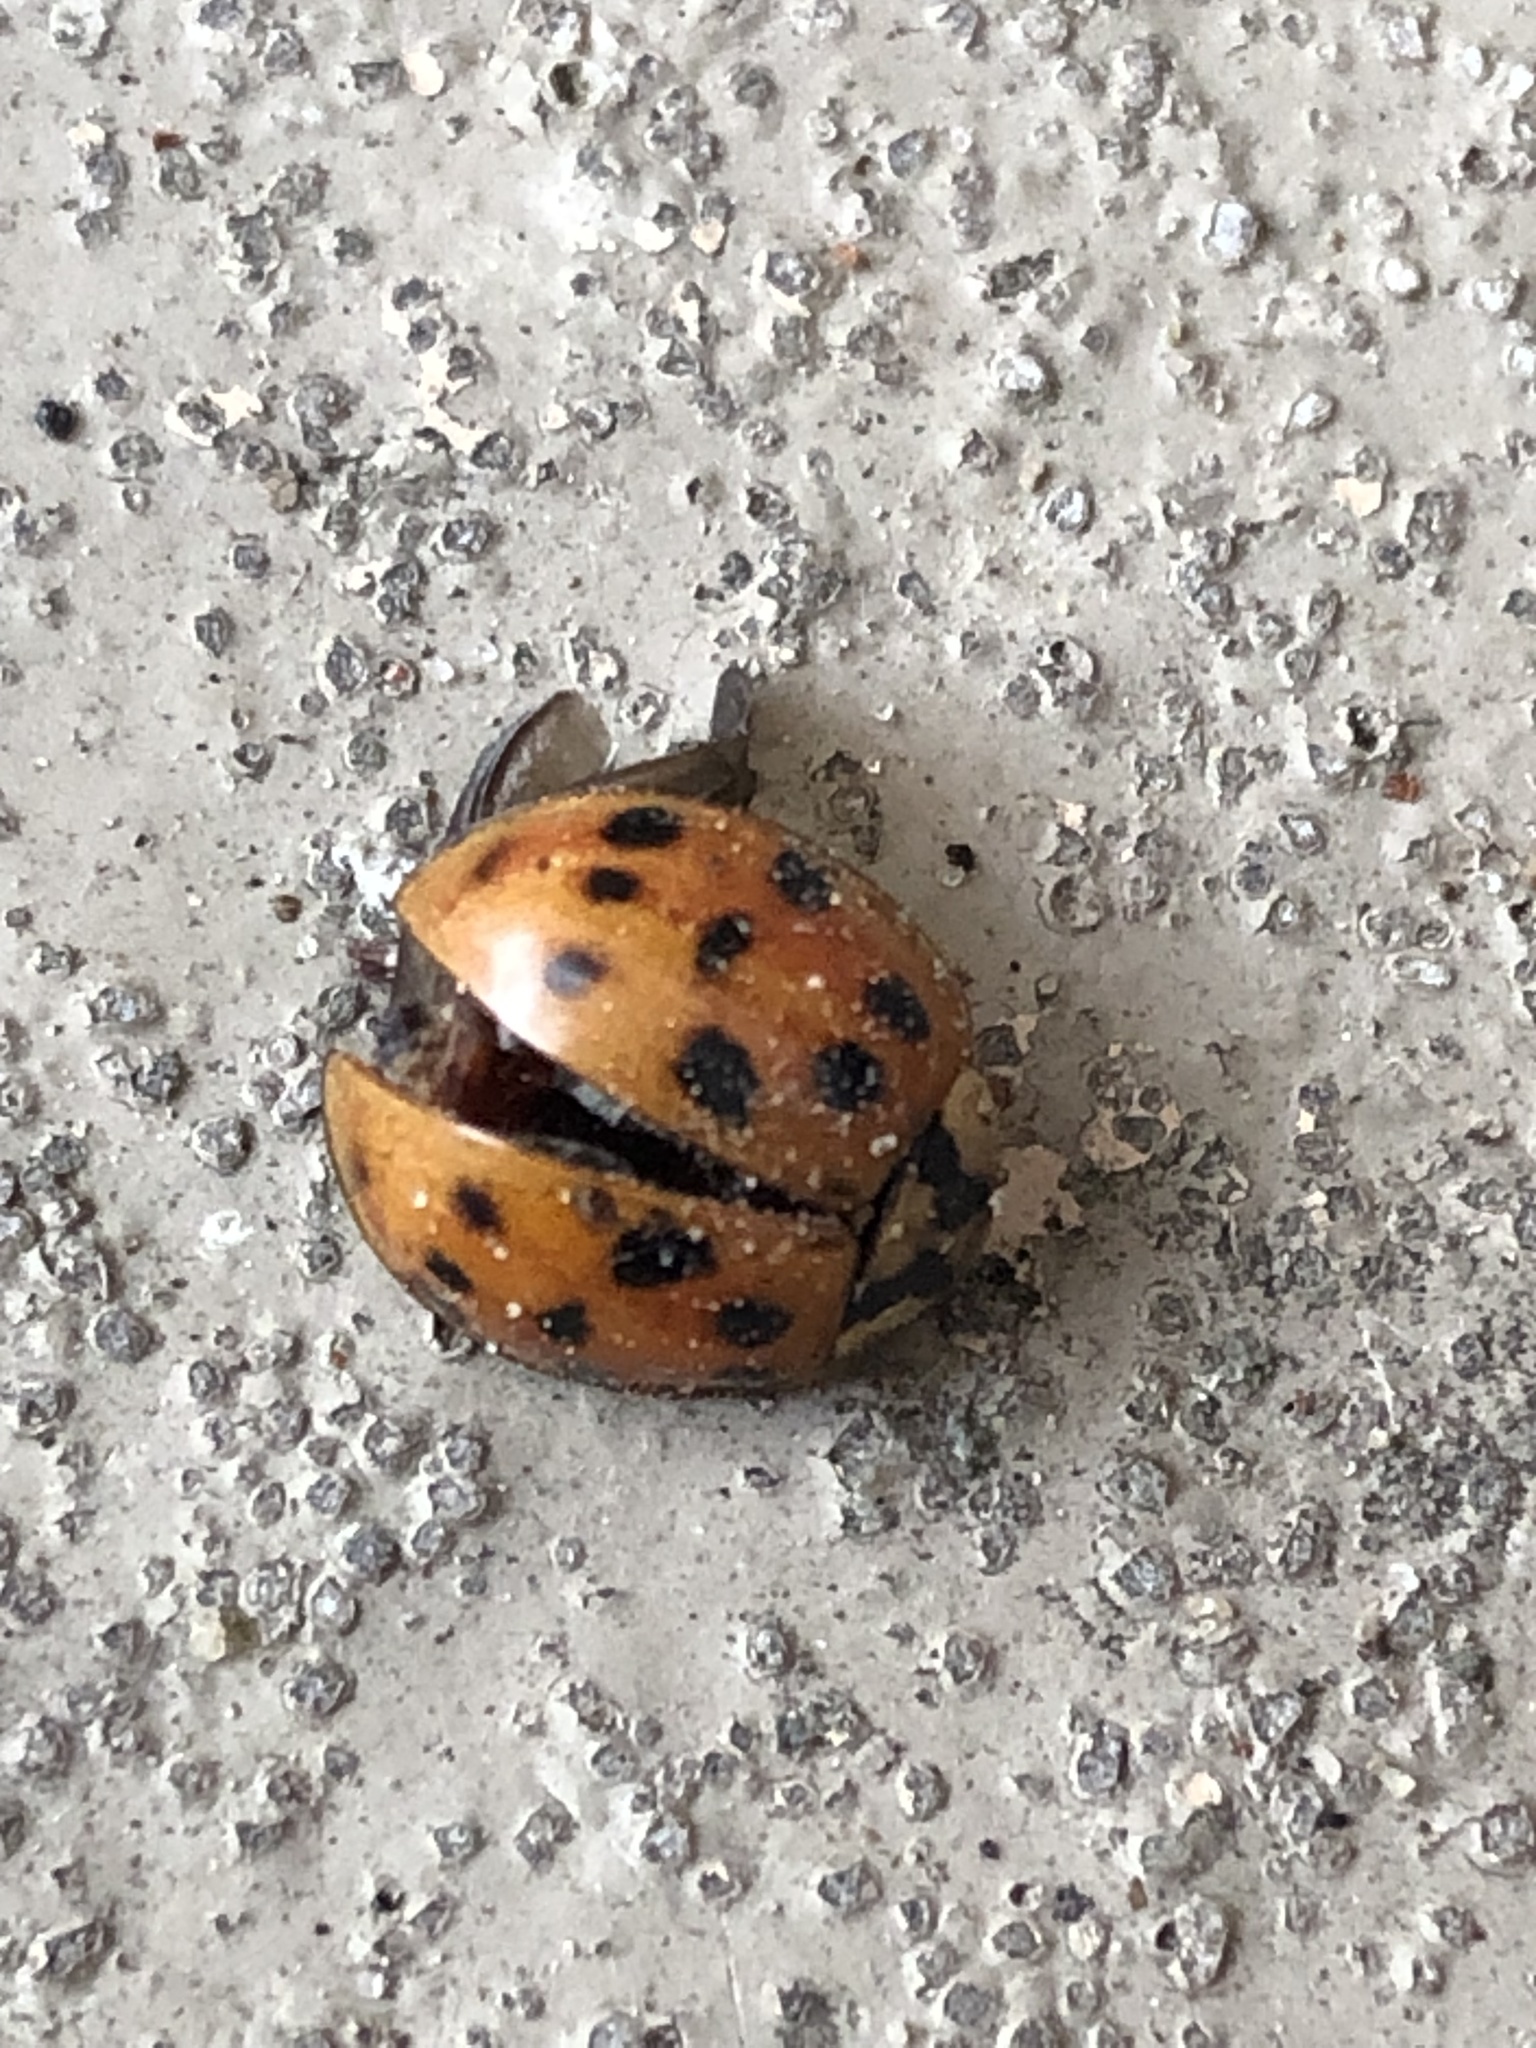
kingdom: Animalia
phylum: Arthropoda
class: Insecta
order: Coleoptera
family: Coccinellidae
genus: Harmonia
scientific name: Harmonia axyridis
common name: Harlequin ladybird
